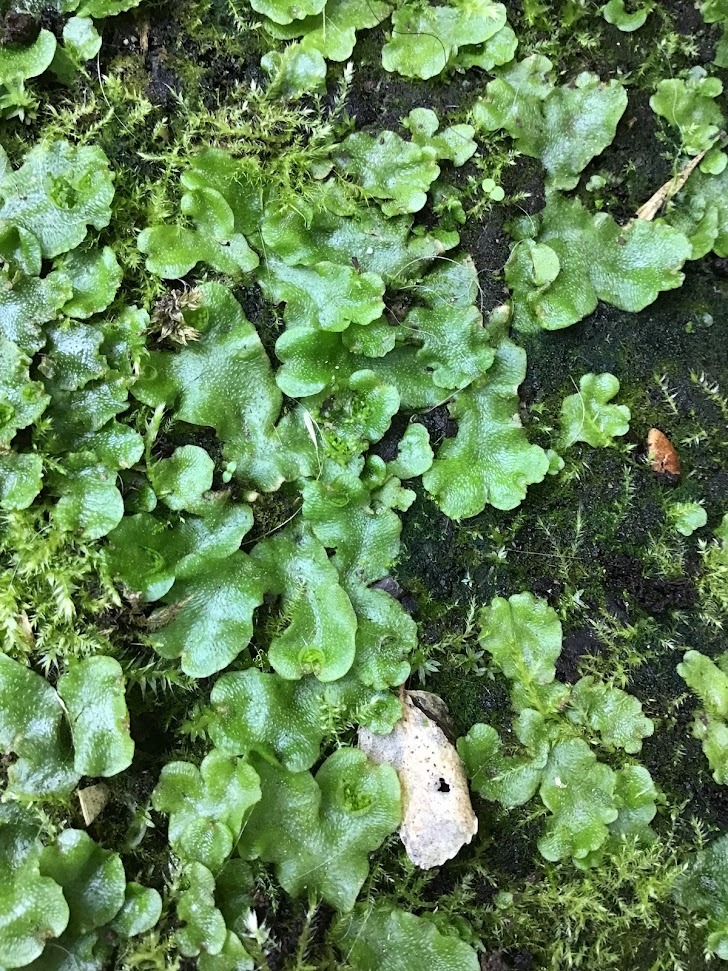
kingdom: Plantae
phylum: Marchantiophyta
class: Marchantiopsida
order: Lunulariales
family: Lunulariaceae
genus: Lunularia
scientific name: Lunularia cruciata
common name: Crescent-cup liverwort
